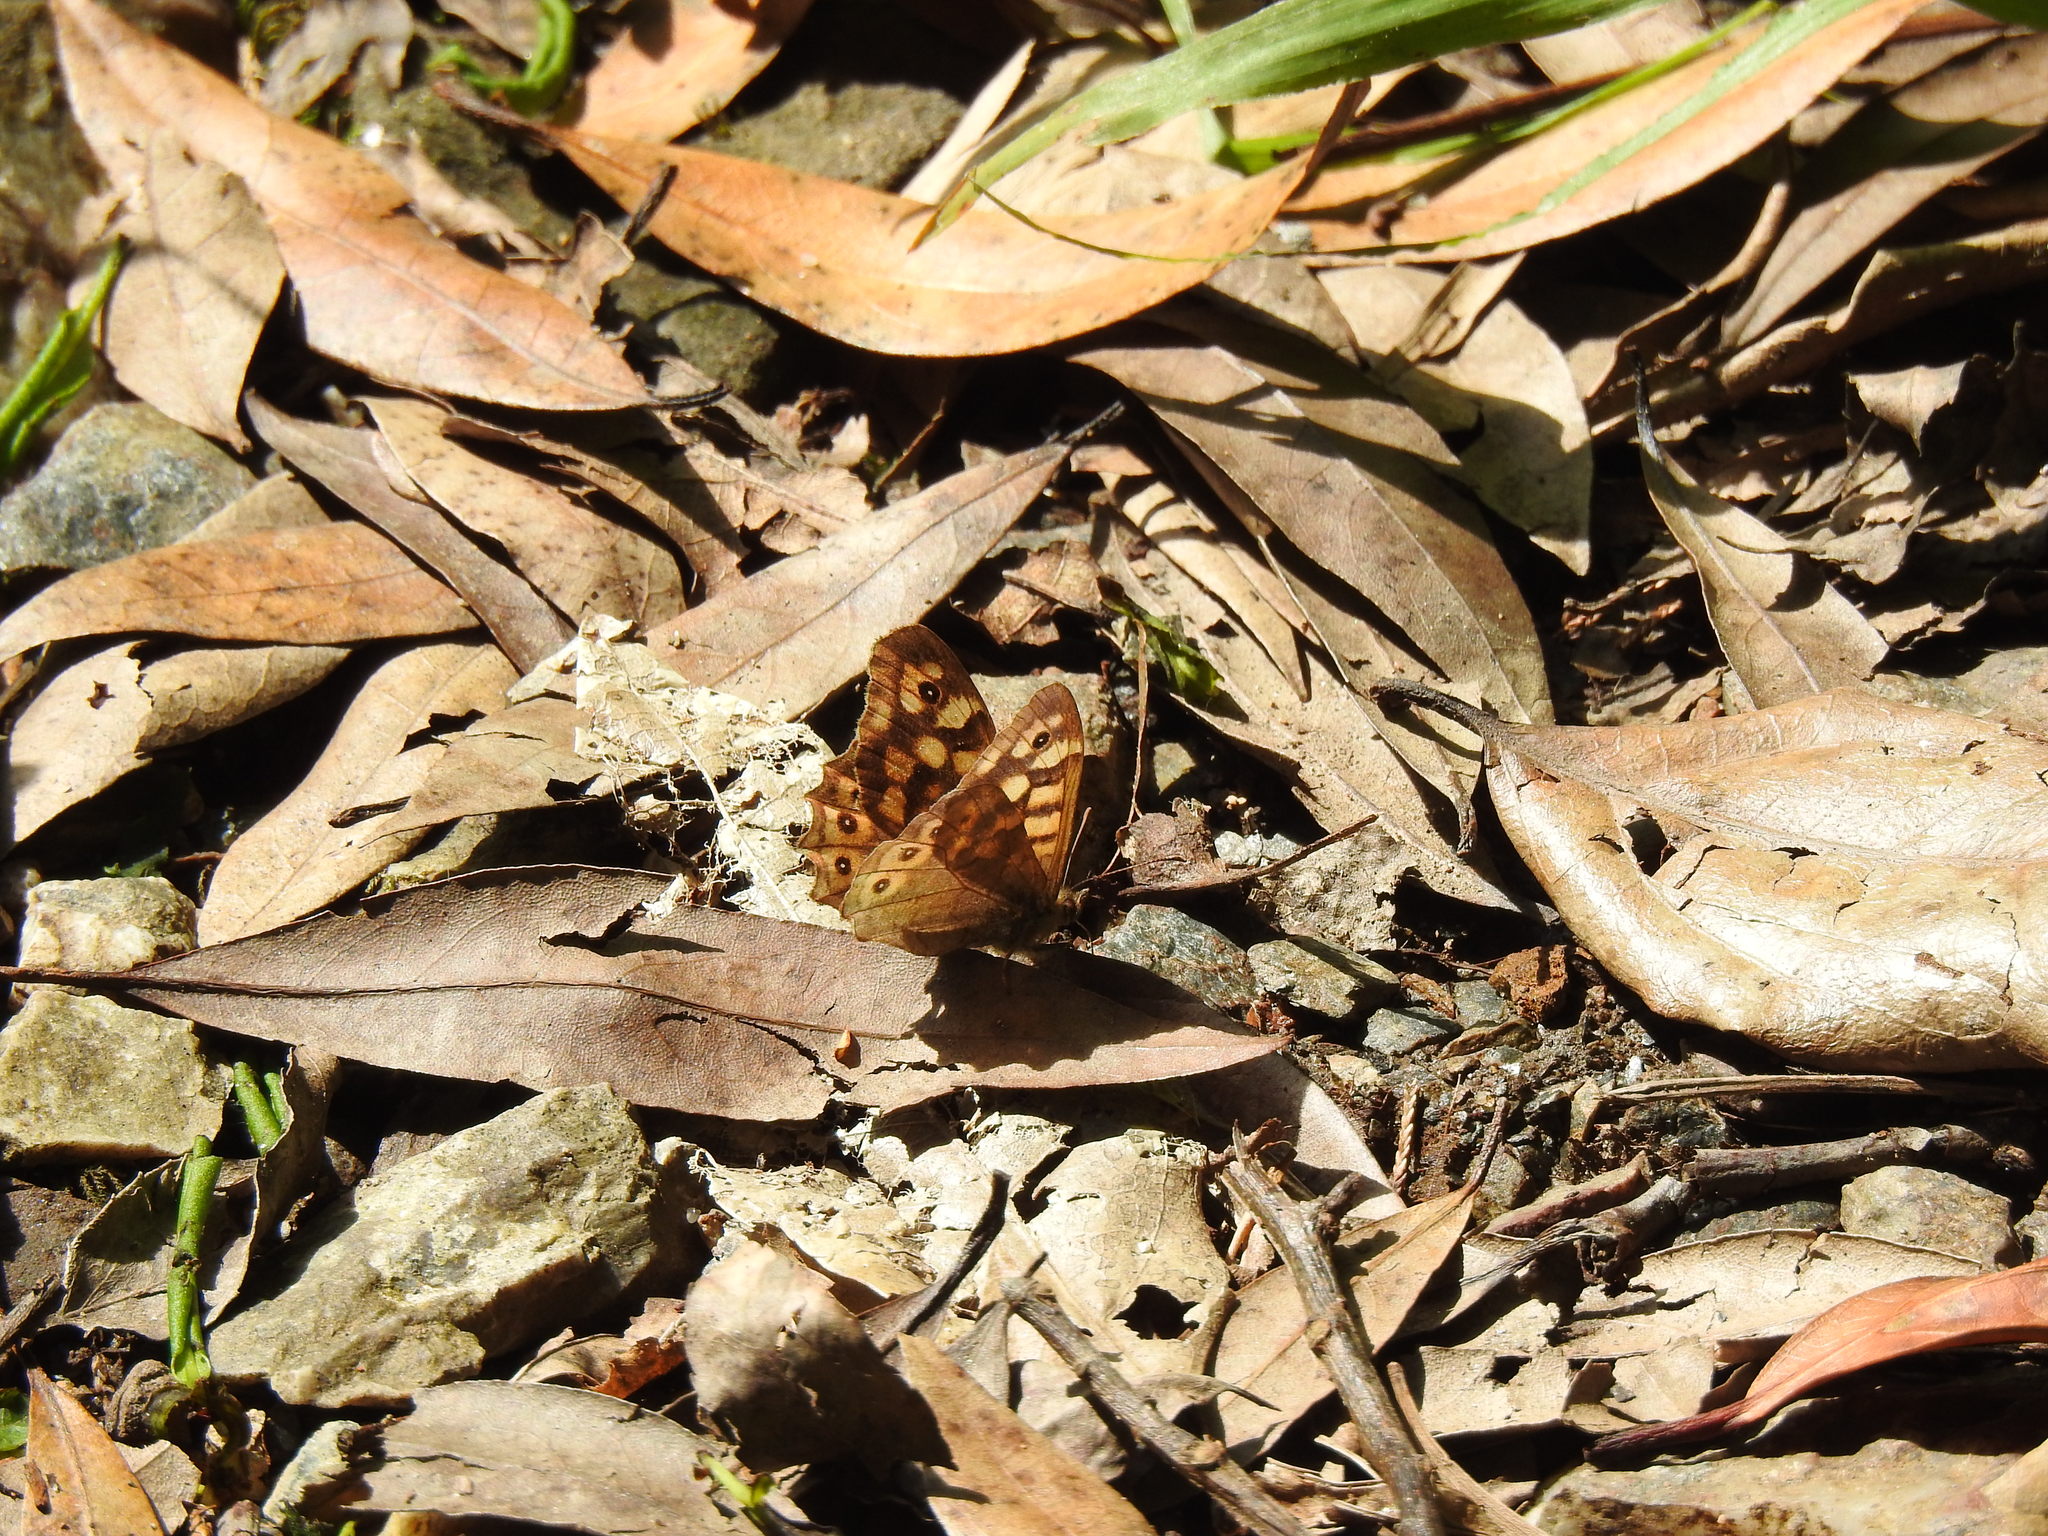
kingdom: Animalia
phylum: Arthropoda
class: Insecta
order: Lepidoptera
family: Nymphalidae
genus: Pararge
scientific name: Pararge aegeria
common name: Speckled wood
